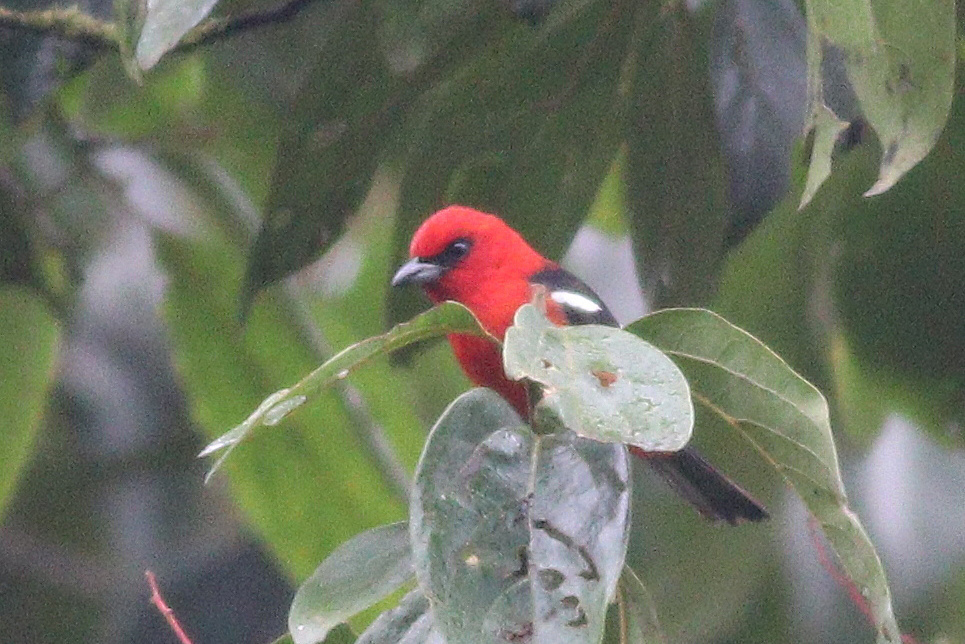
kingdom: Animalia
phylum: Chordata
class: Aves
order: Passeriformes
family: Cardinalidae
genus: Piranga
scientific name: Piranga leucoptera
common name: White-winged tanager
